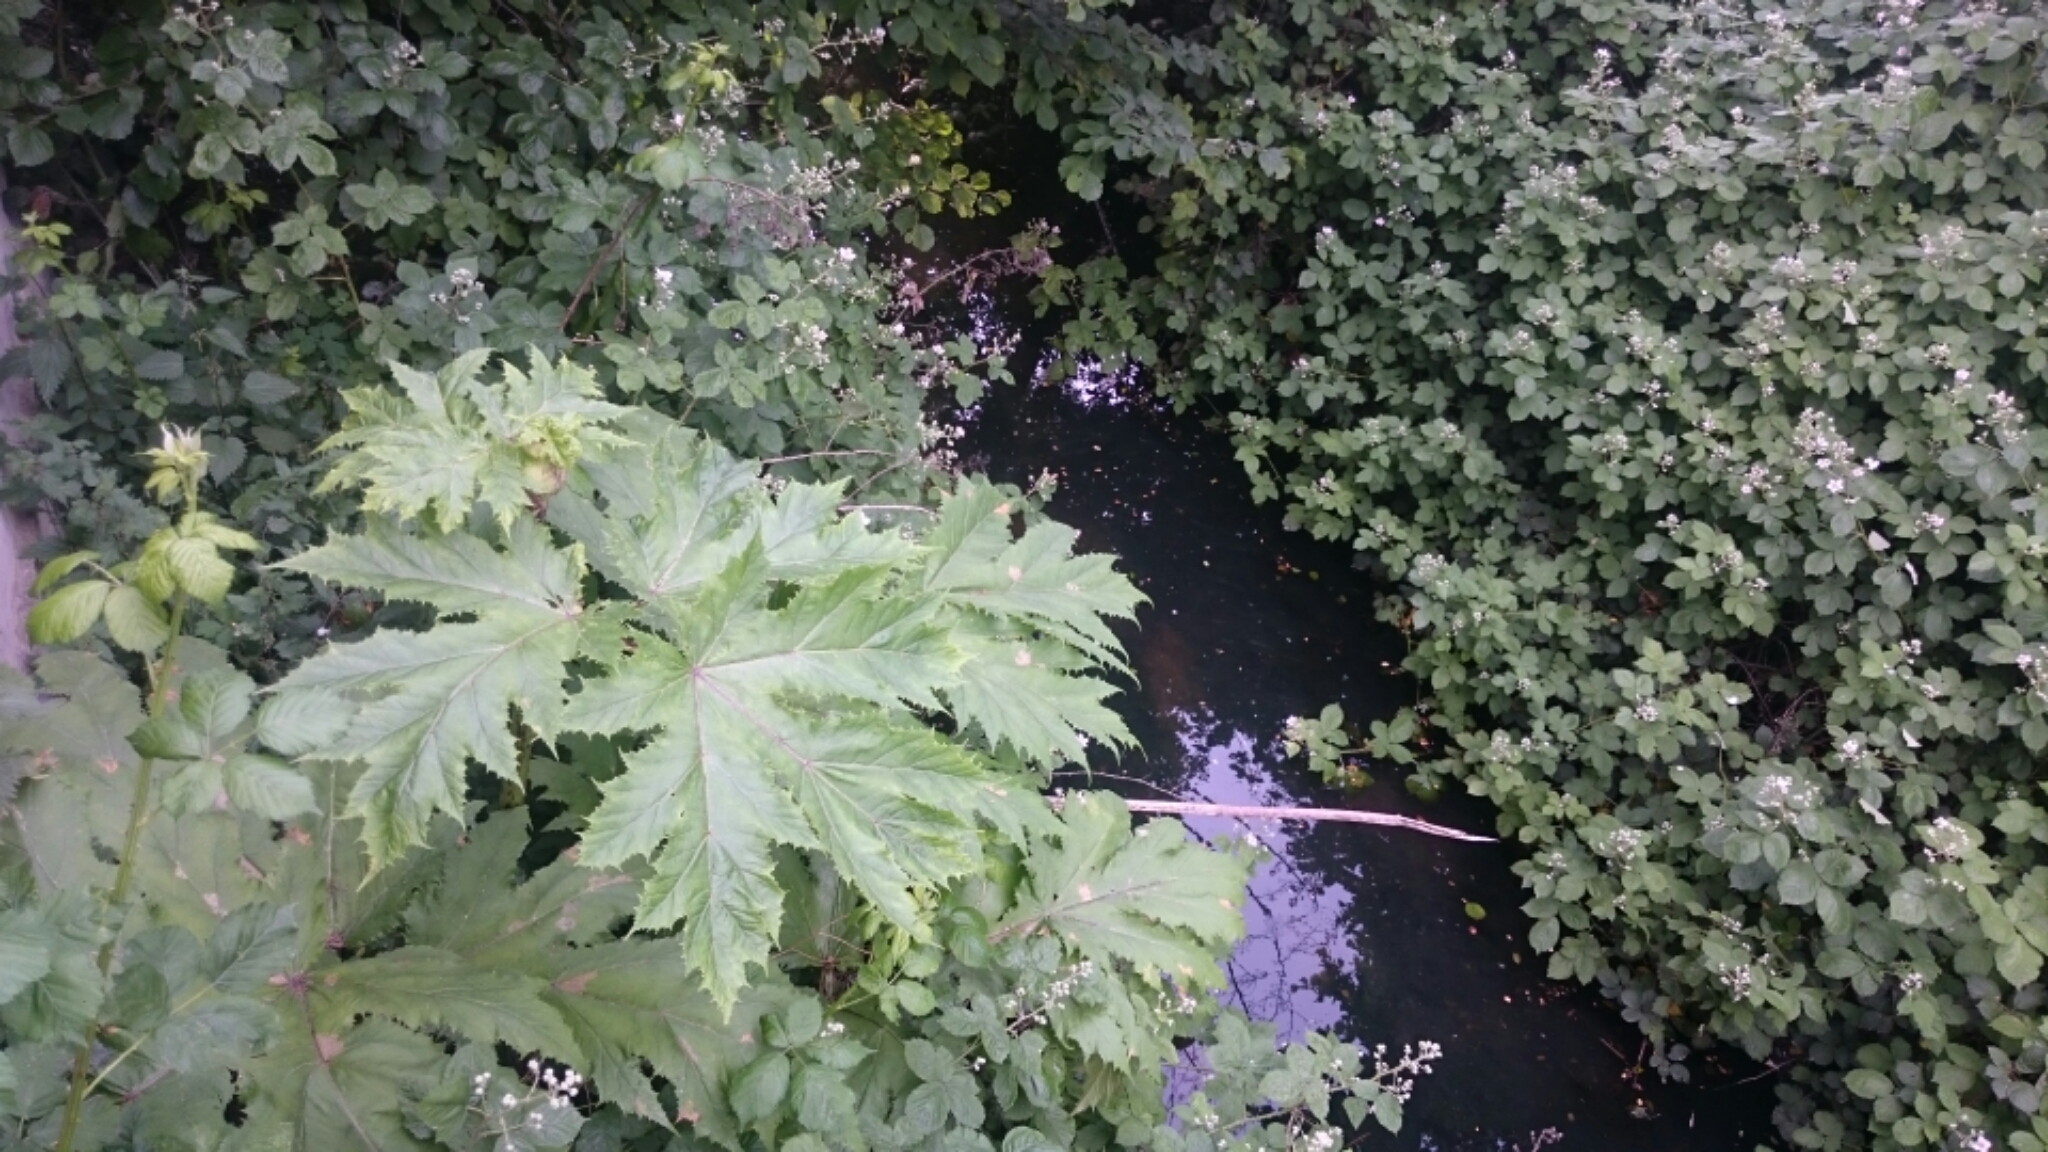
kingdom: Plantae
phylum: Tracheophyta
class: Magnoliopsida
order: Apiales
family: Apiaceae
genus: Heracleum
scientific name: Heracleum mantegazzianum
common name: Giant hogweed
